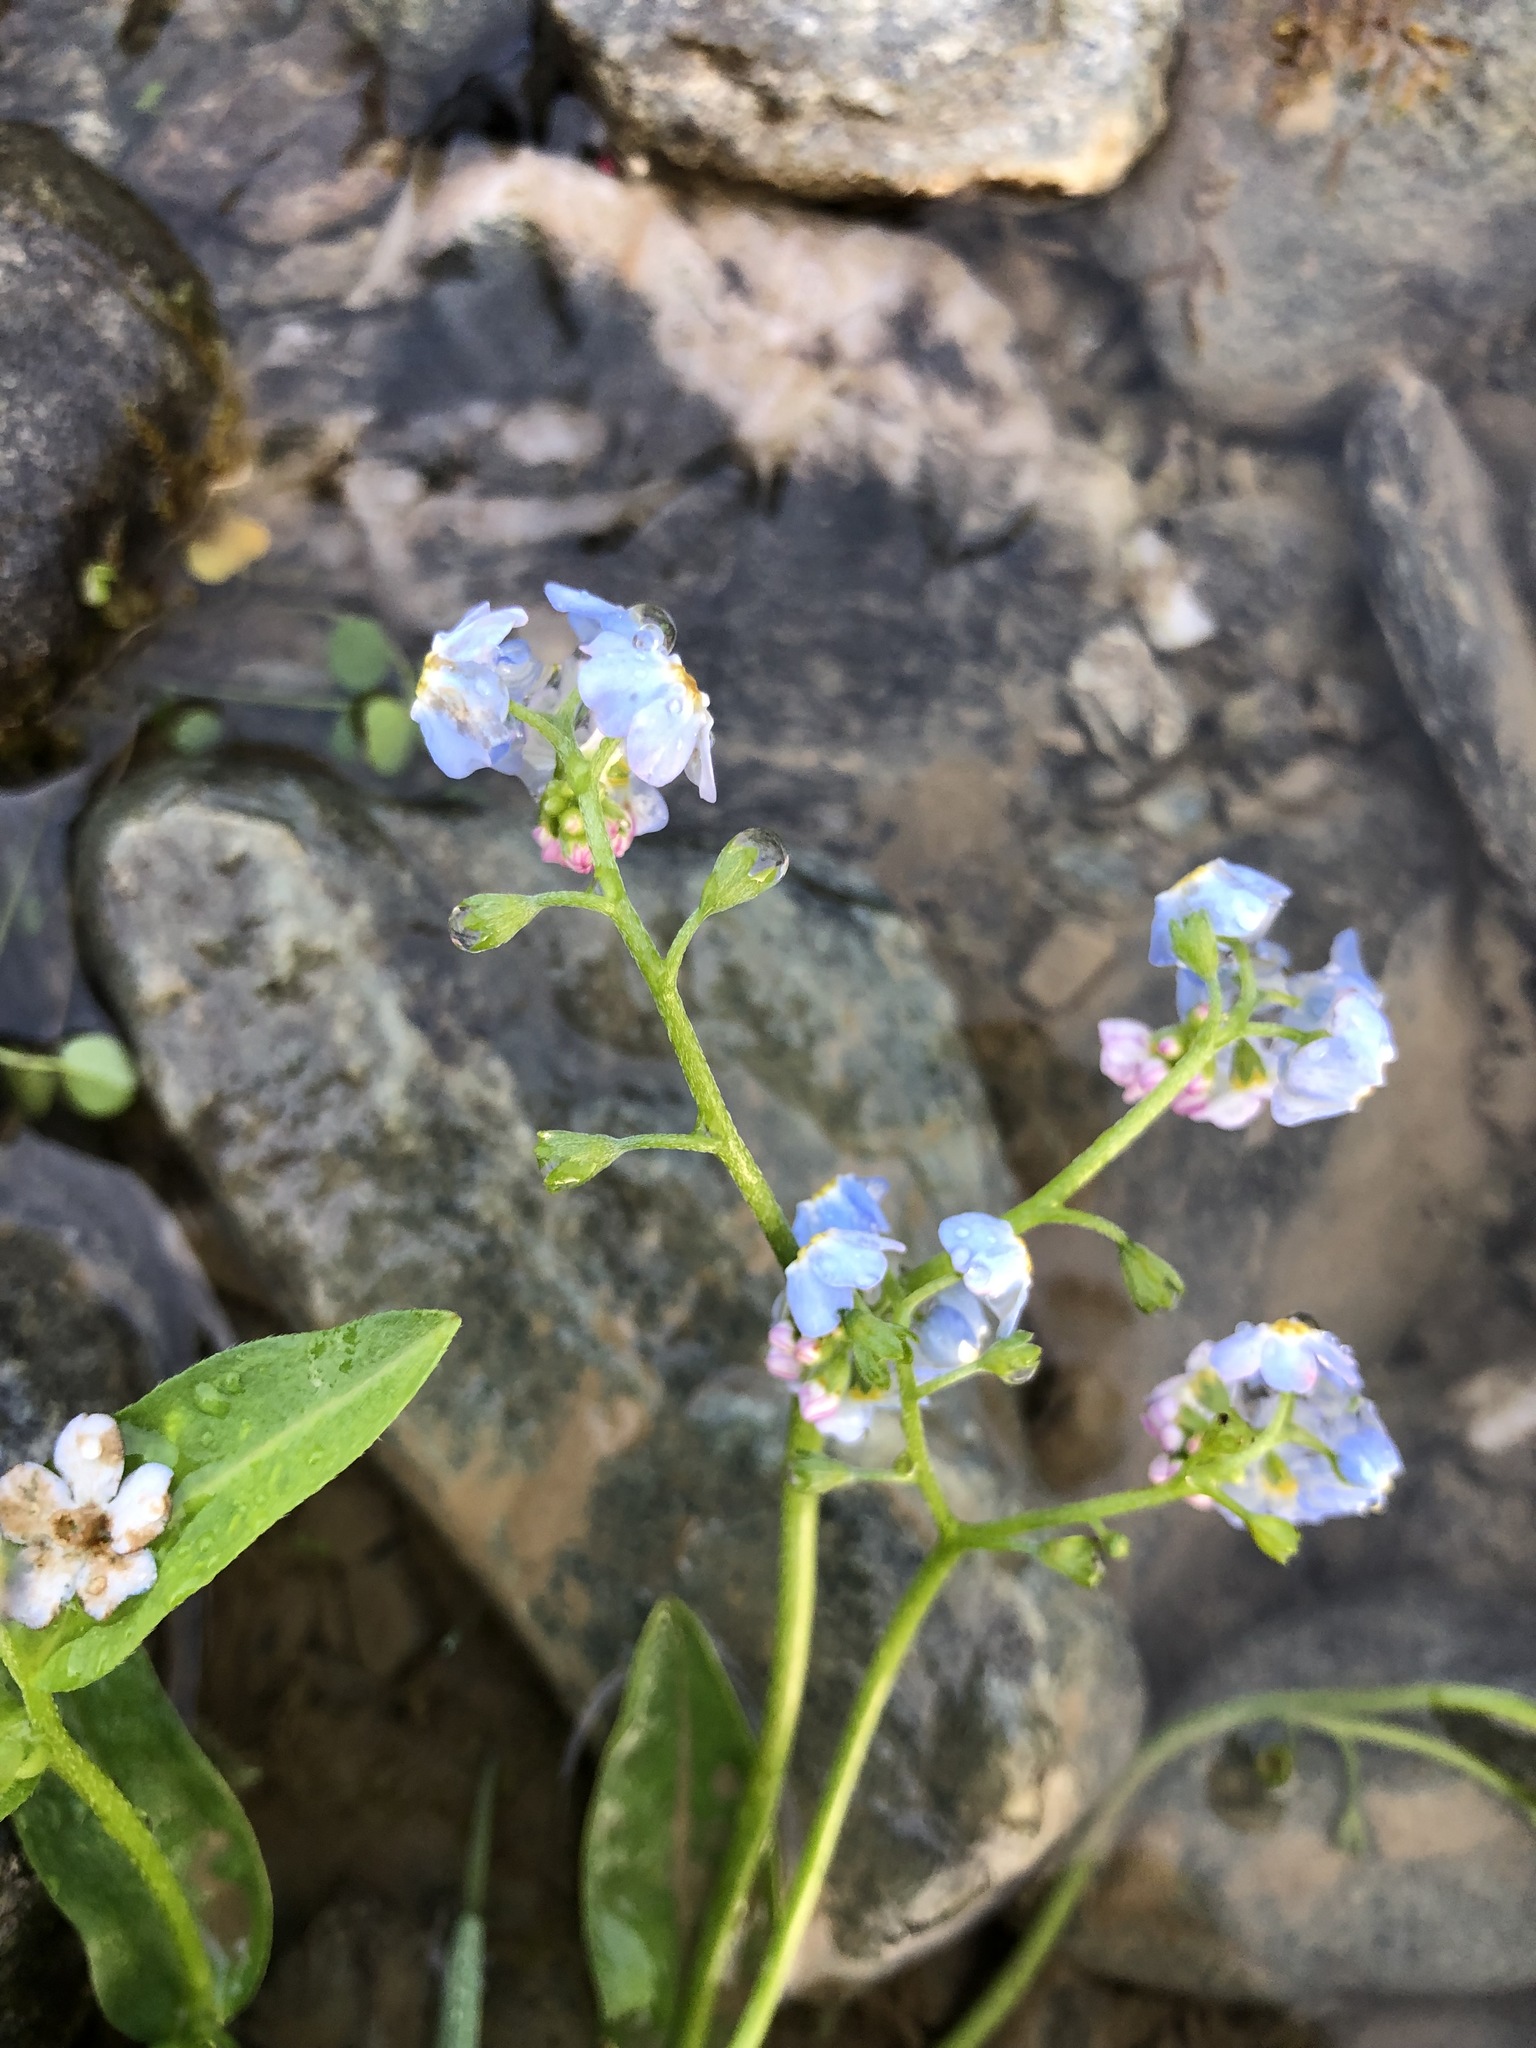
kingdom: Plantae
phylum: Tracheophyta
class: Magnoliopsida
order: Boraginales
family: Boraginaceae
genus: Myosotis
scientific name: Myosotis scorpioides
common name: Water forget-me-not
